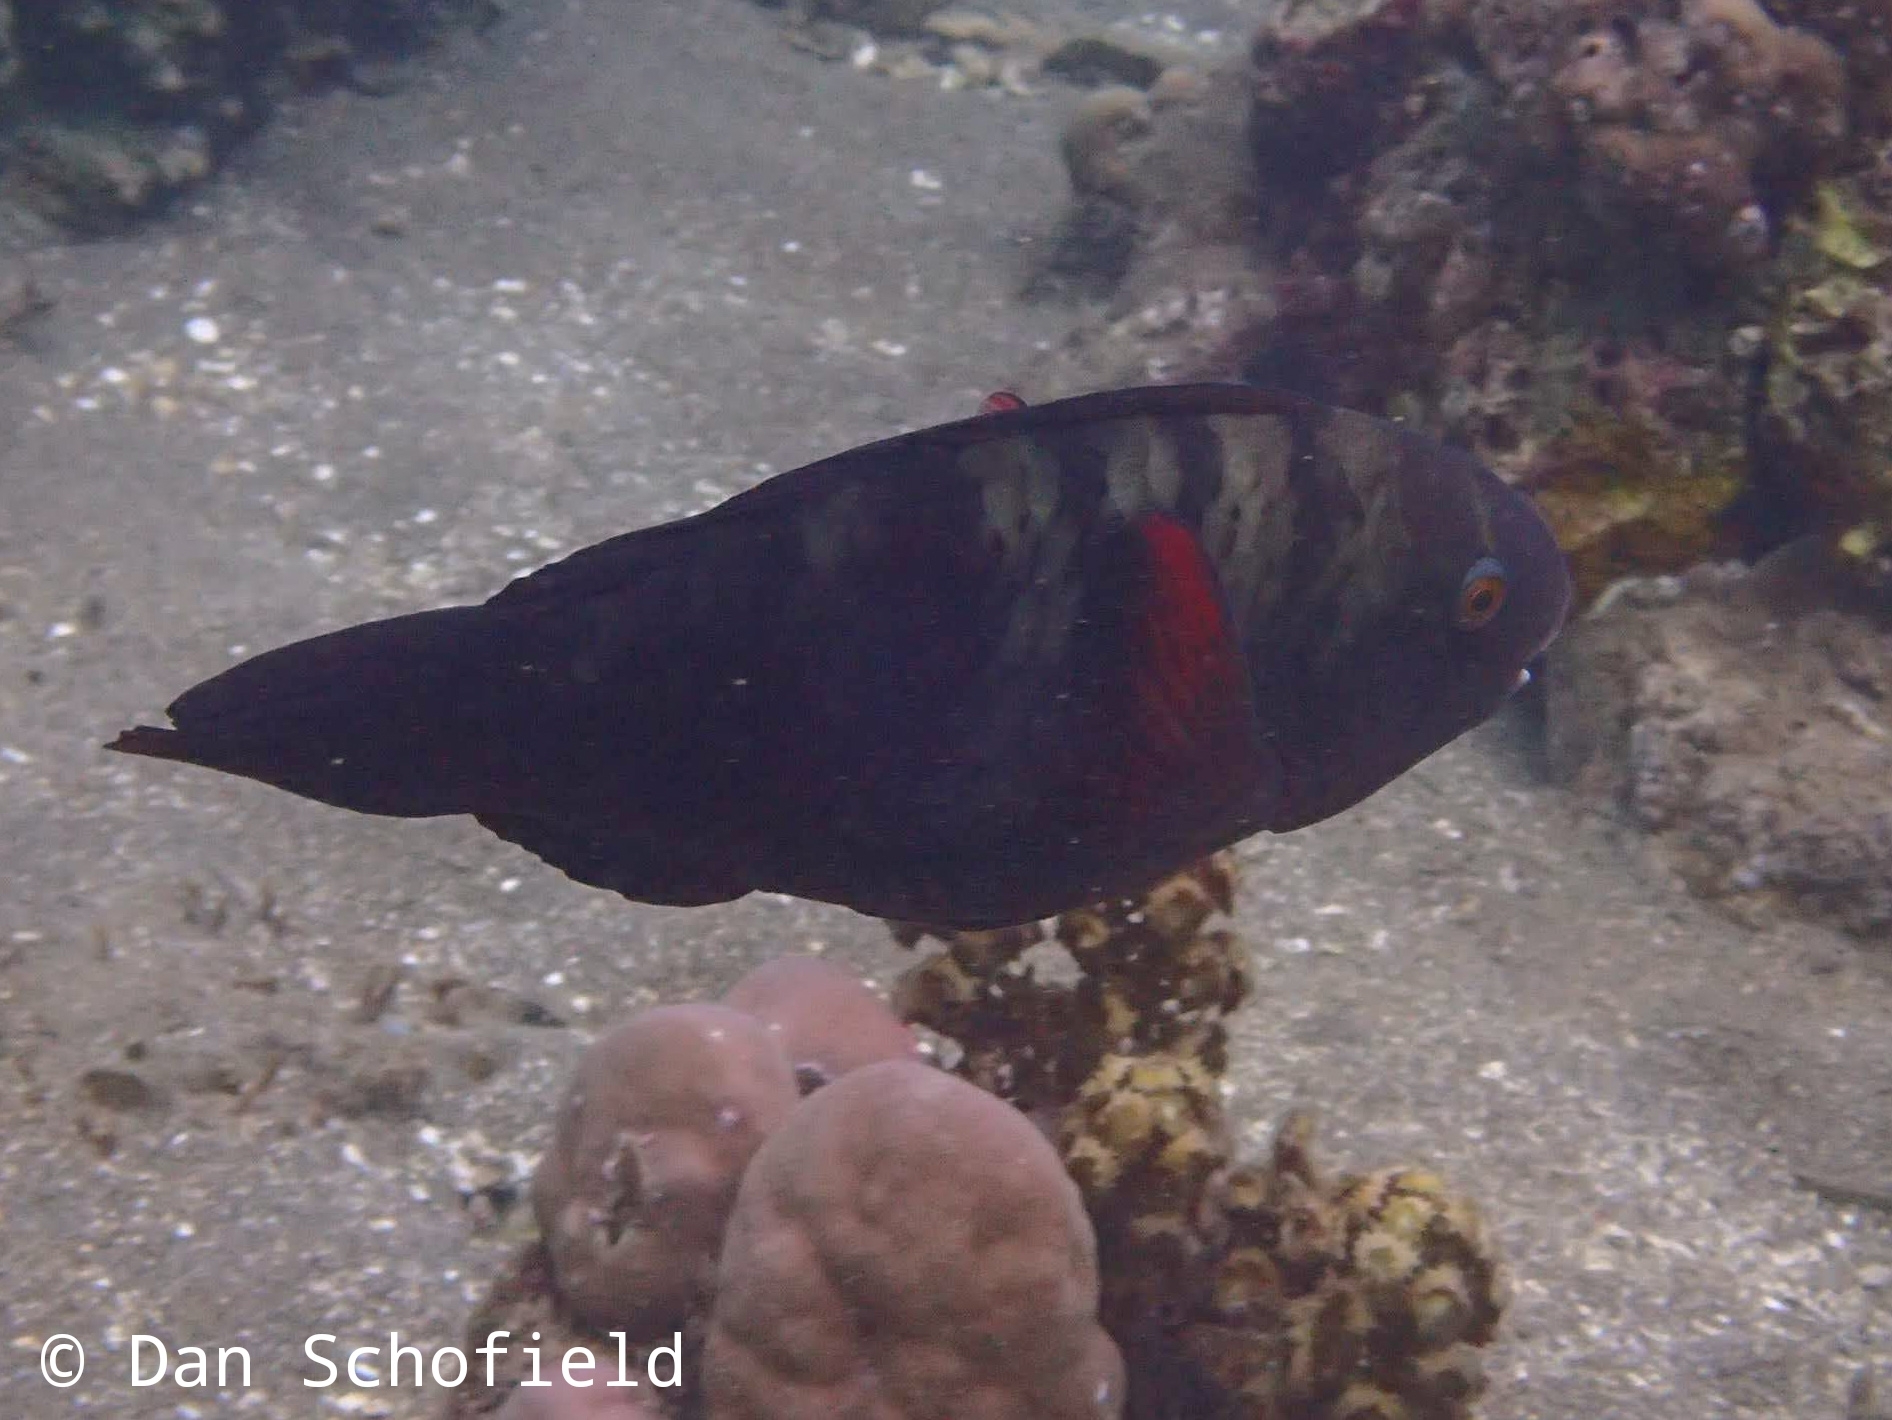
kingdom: Animalia
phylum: Chordata
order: Perciformes
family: Scaridae
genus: Chlorurus
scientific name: Chlorurus bleekeri
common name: Bleeker's parrotfish
